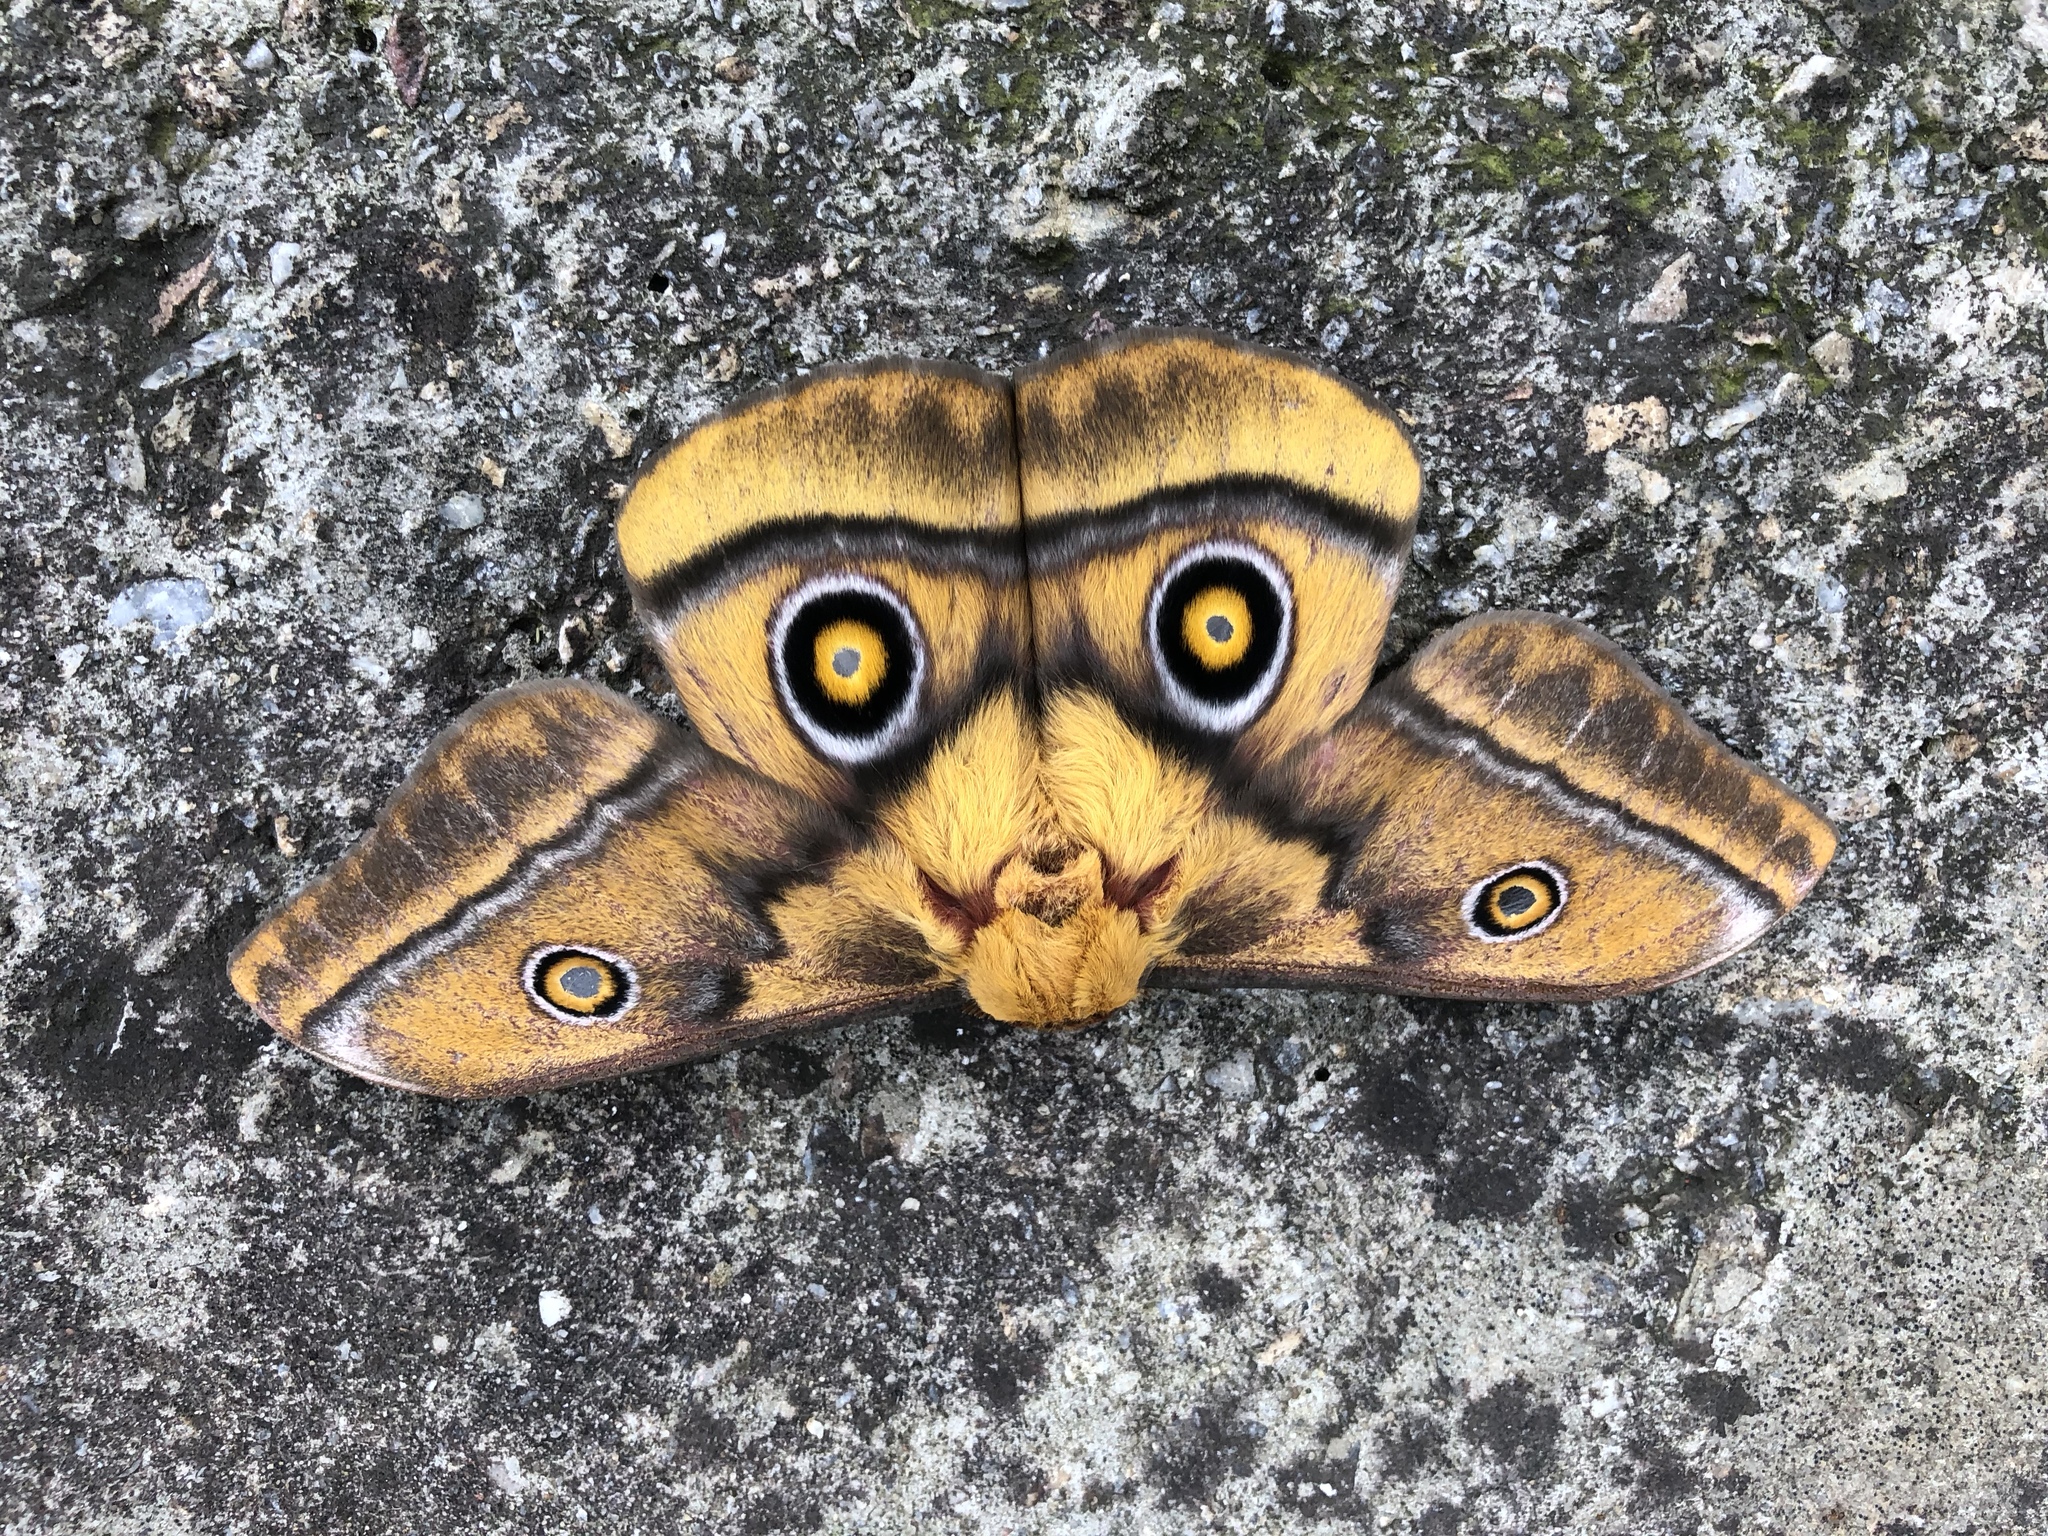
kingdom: Animalia
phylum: Arthropoda
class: Insecta
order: Lepidoptera
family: Saturniidae
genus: Nudaurelia
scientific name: Nudaurelia cytherea
